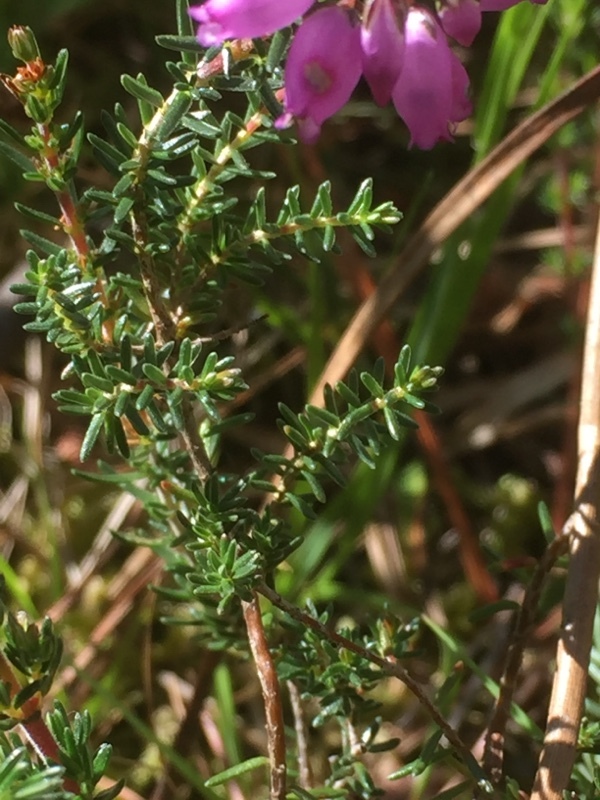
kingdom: Plantae
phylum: Tracheophyta
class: Magnoliopsida
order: Ericales
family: Ericaceae
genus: Erica
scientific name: Erica cinerea
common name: Bell heather
